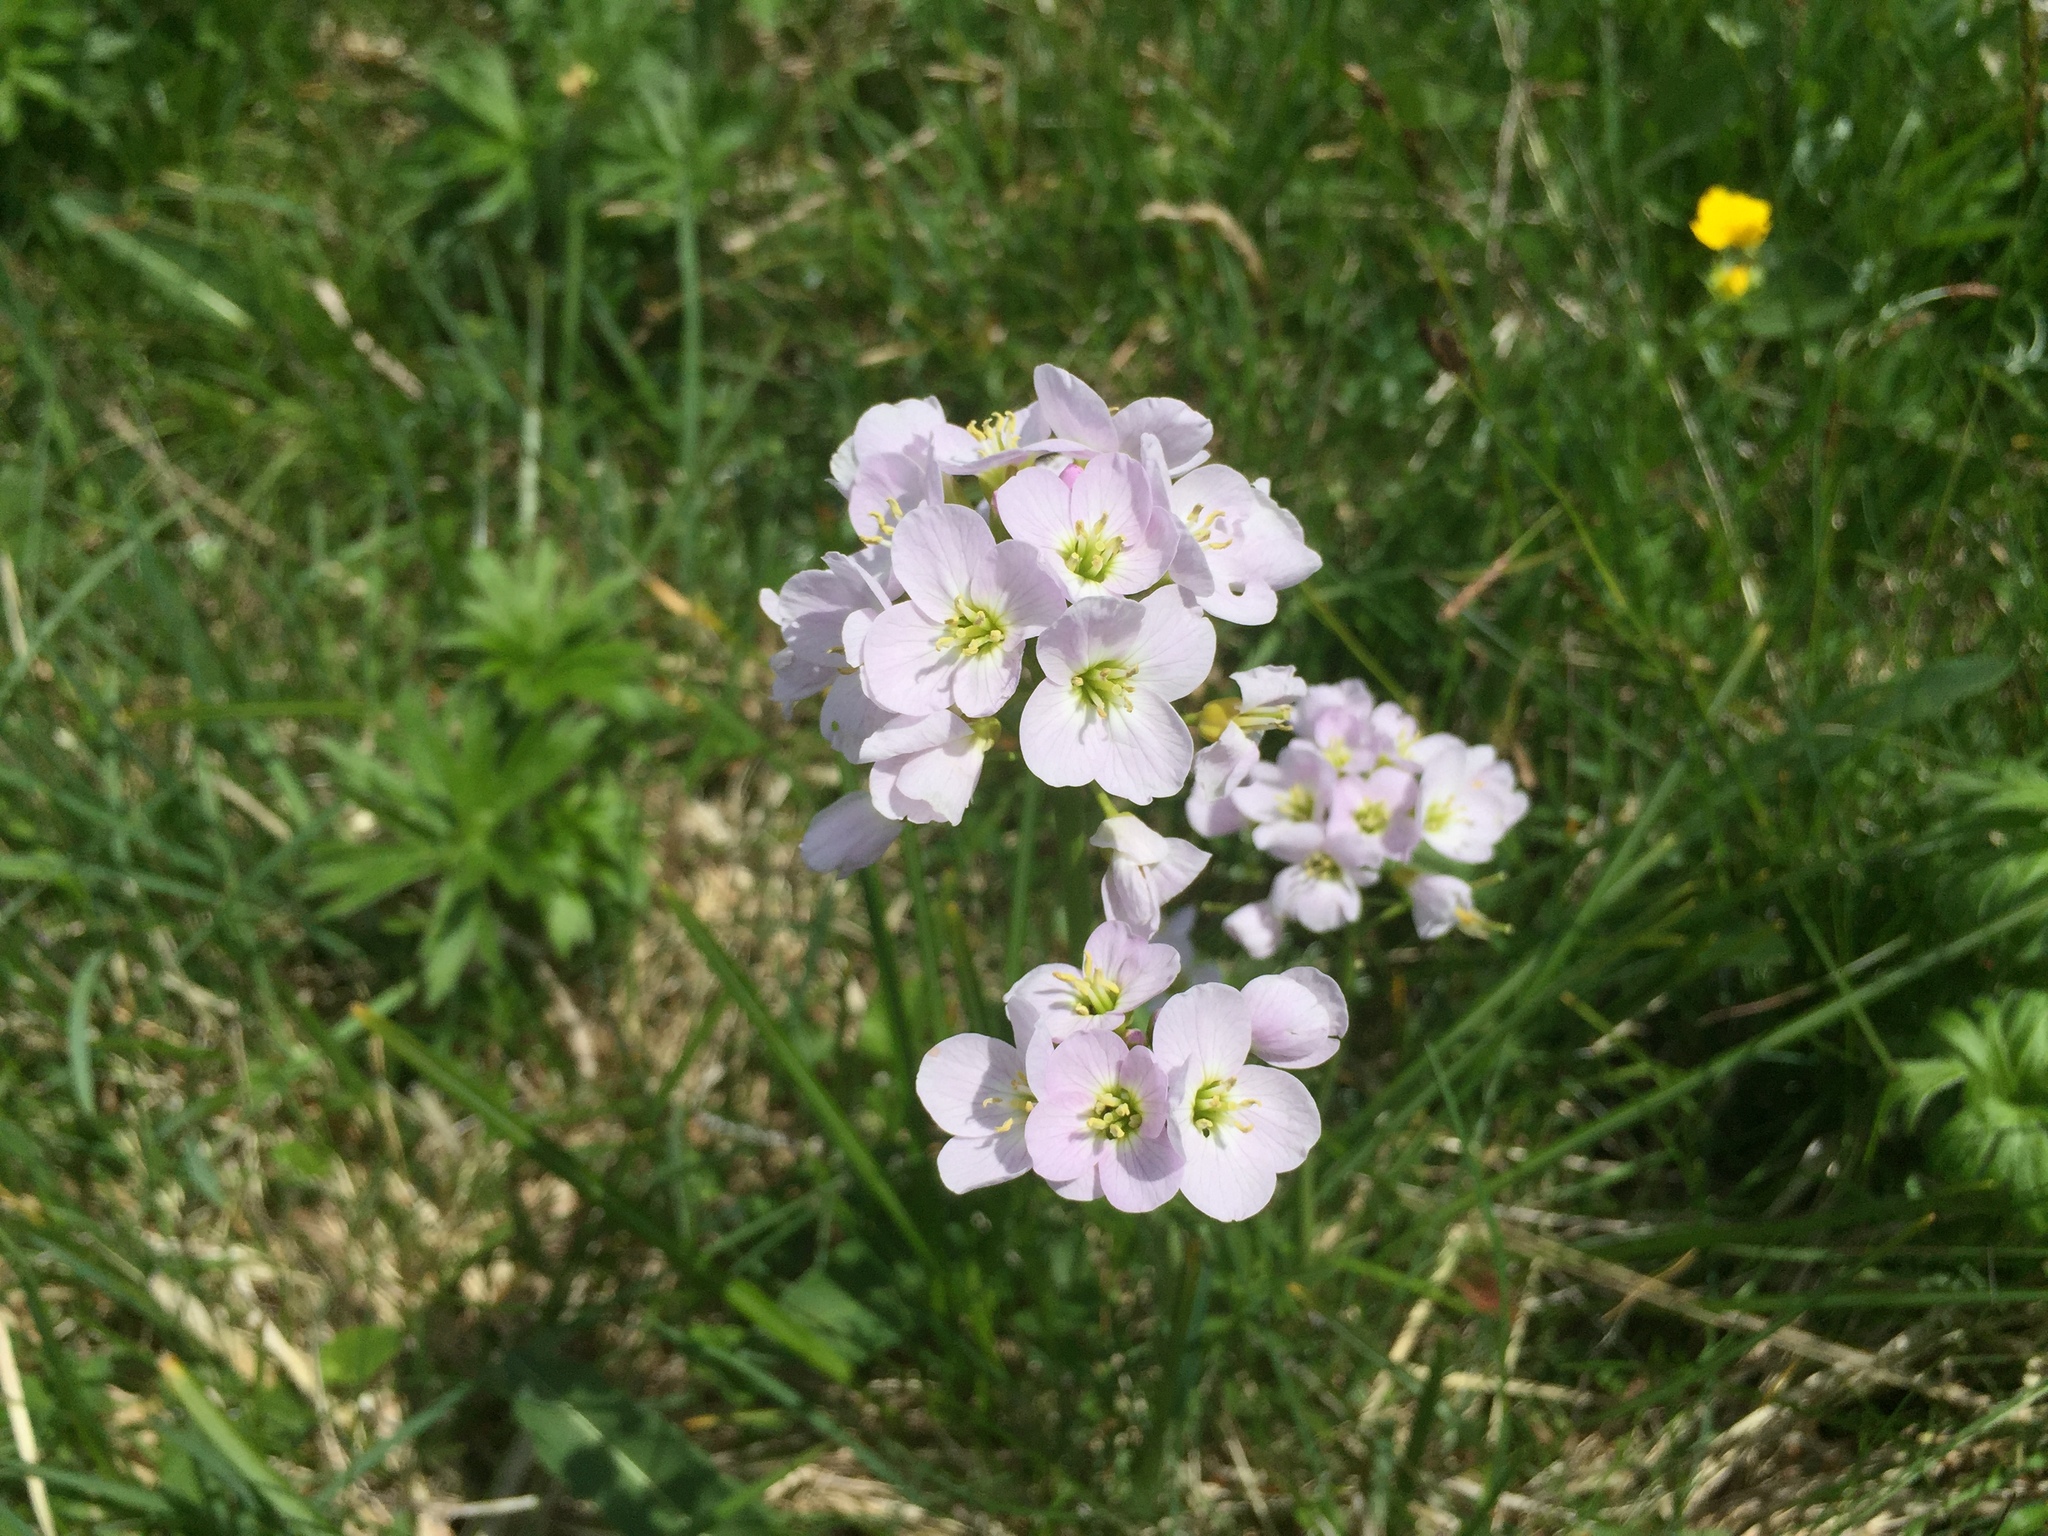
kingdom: Plantae
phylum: Tracheophyta
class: Magnoliopsida
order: Brassicales
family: Brassicaceae
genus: Cardamine
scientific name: Cardamine pratensis
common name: Cuckoo flower
